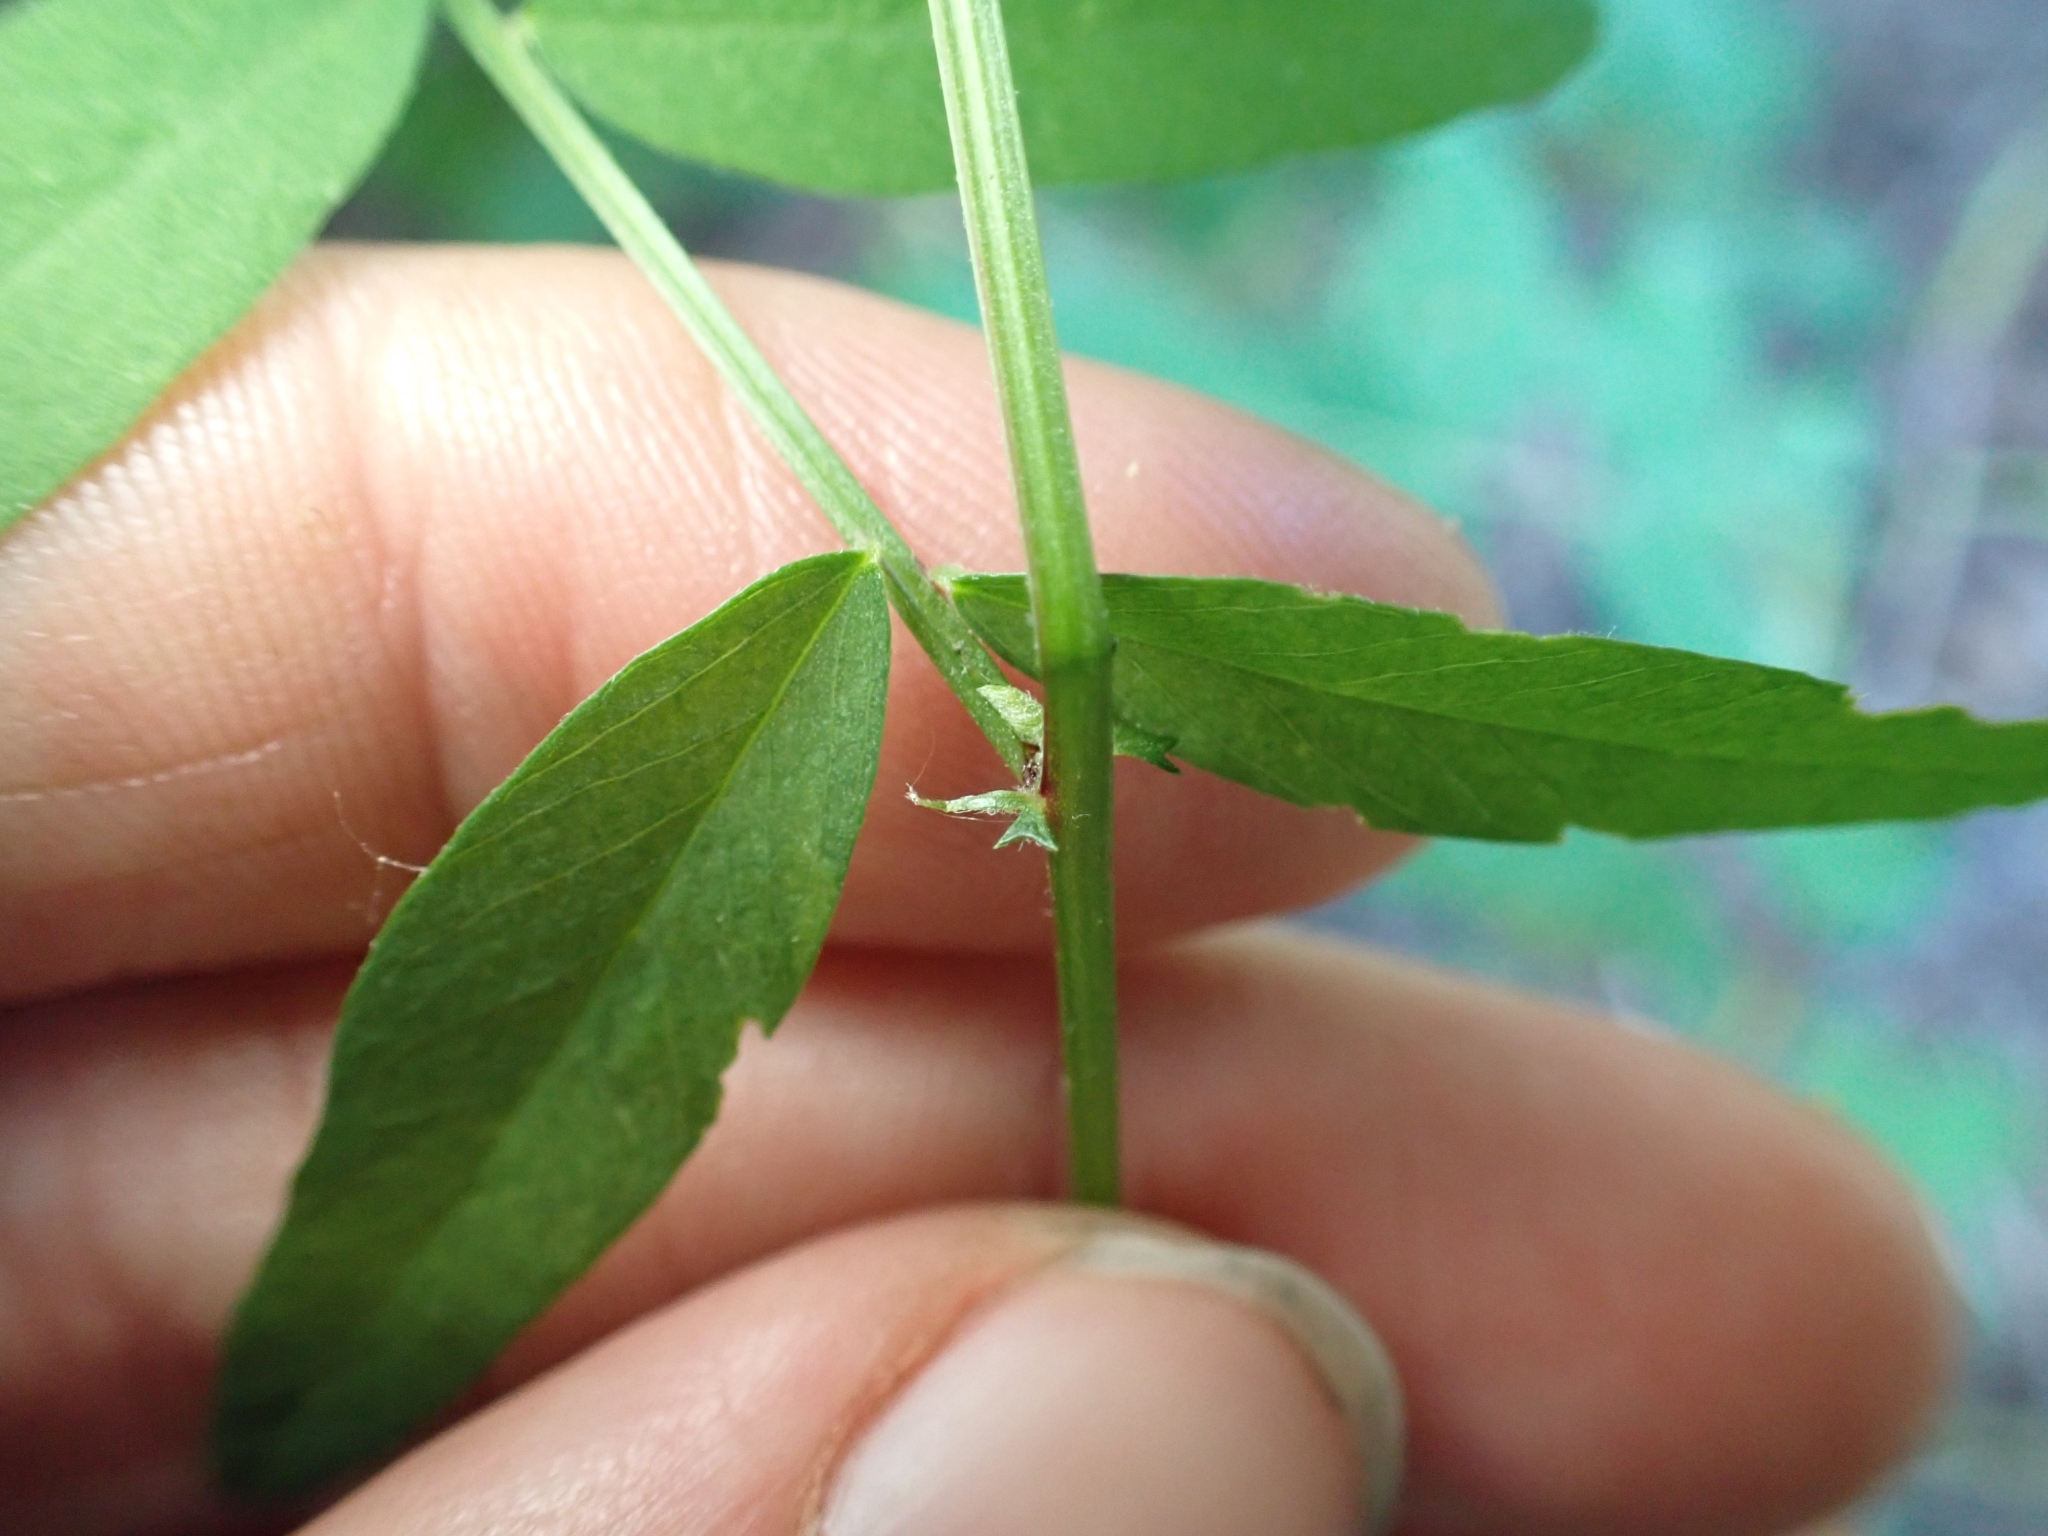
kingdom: Plantae
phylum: Tracheophyta
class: Magnoliopsida
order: Fabales
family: Fabaceae
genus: Vicia
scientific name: Vicia americana
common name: American vetch
